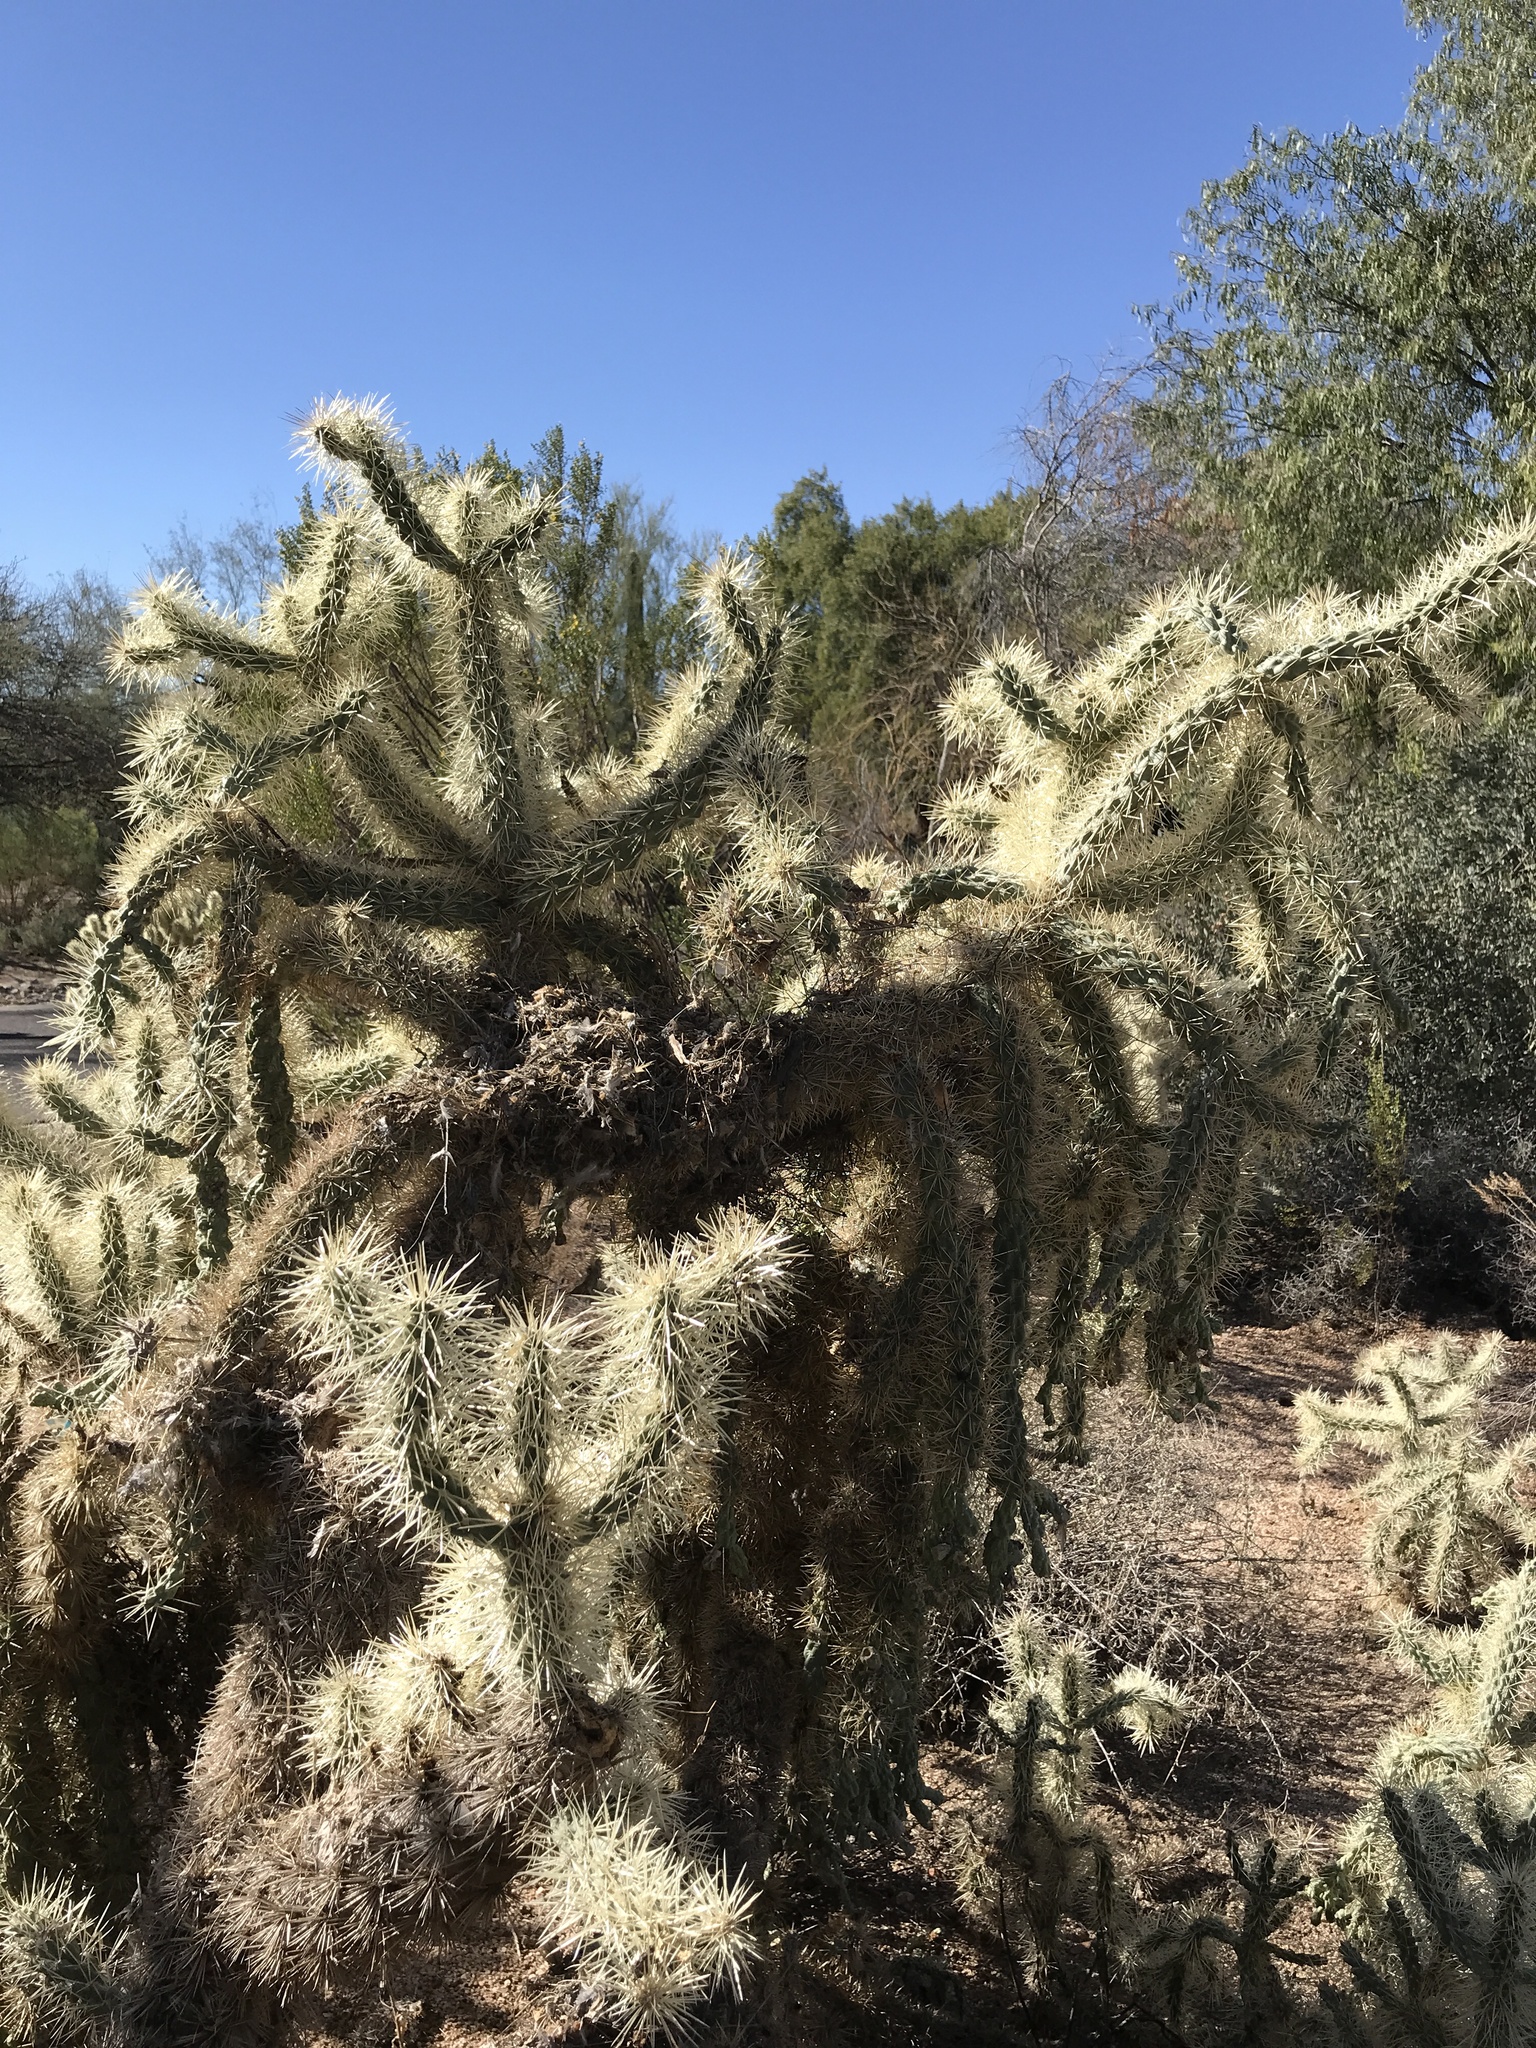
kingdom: Plantae
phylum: Tracheophyta
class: Magnoliopsida
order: Caryophyllales
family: Cactaceae
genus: Cylindropuntia
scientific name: Cylindropuntia fulgida
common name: Jumping cholla
